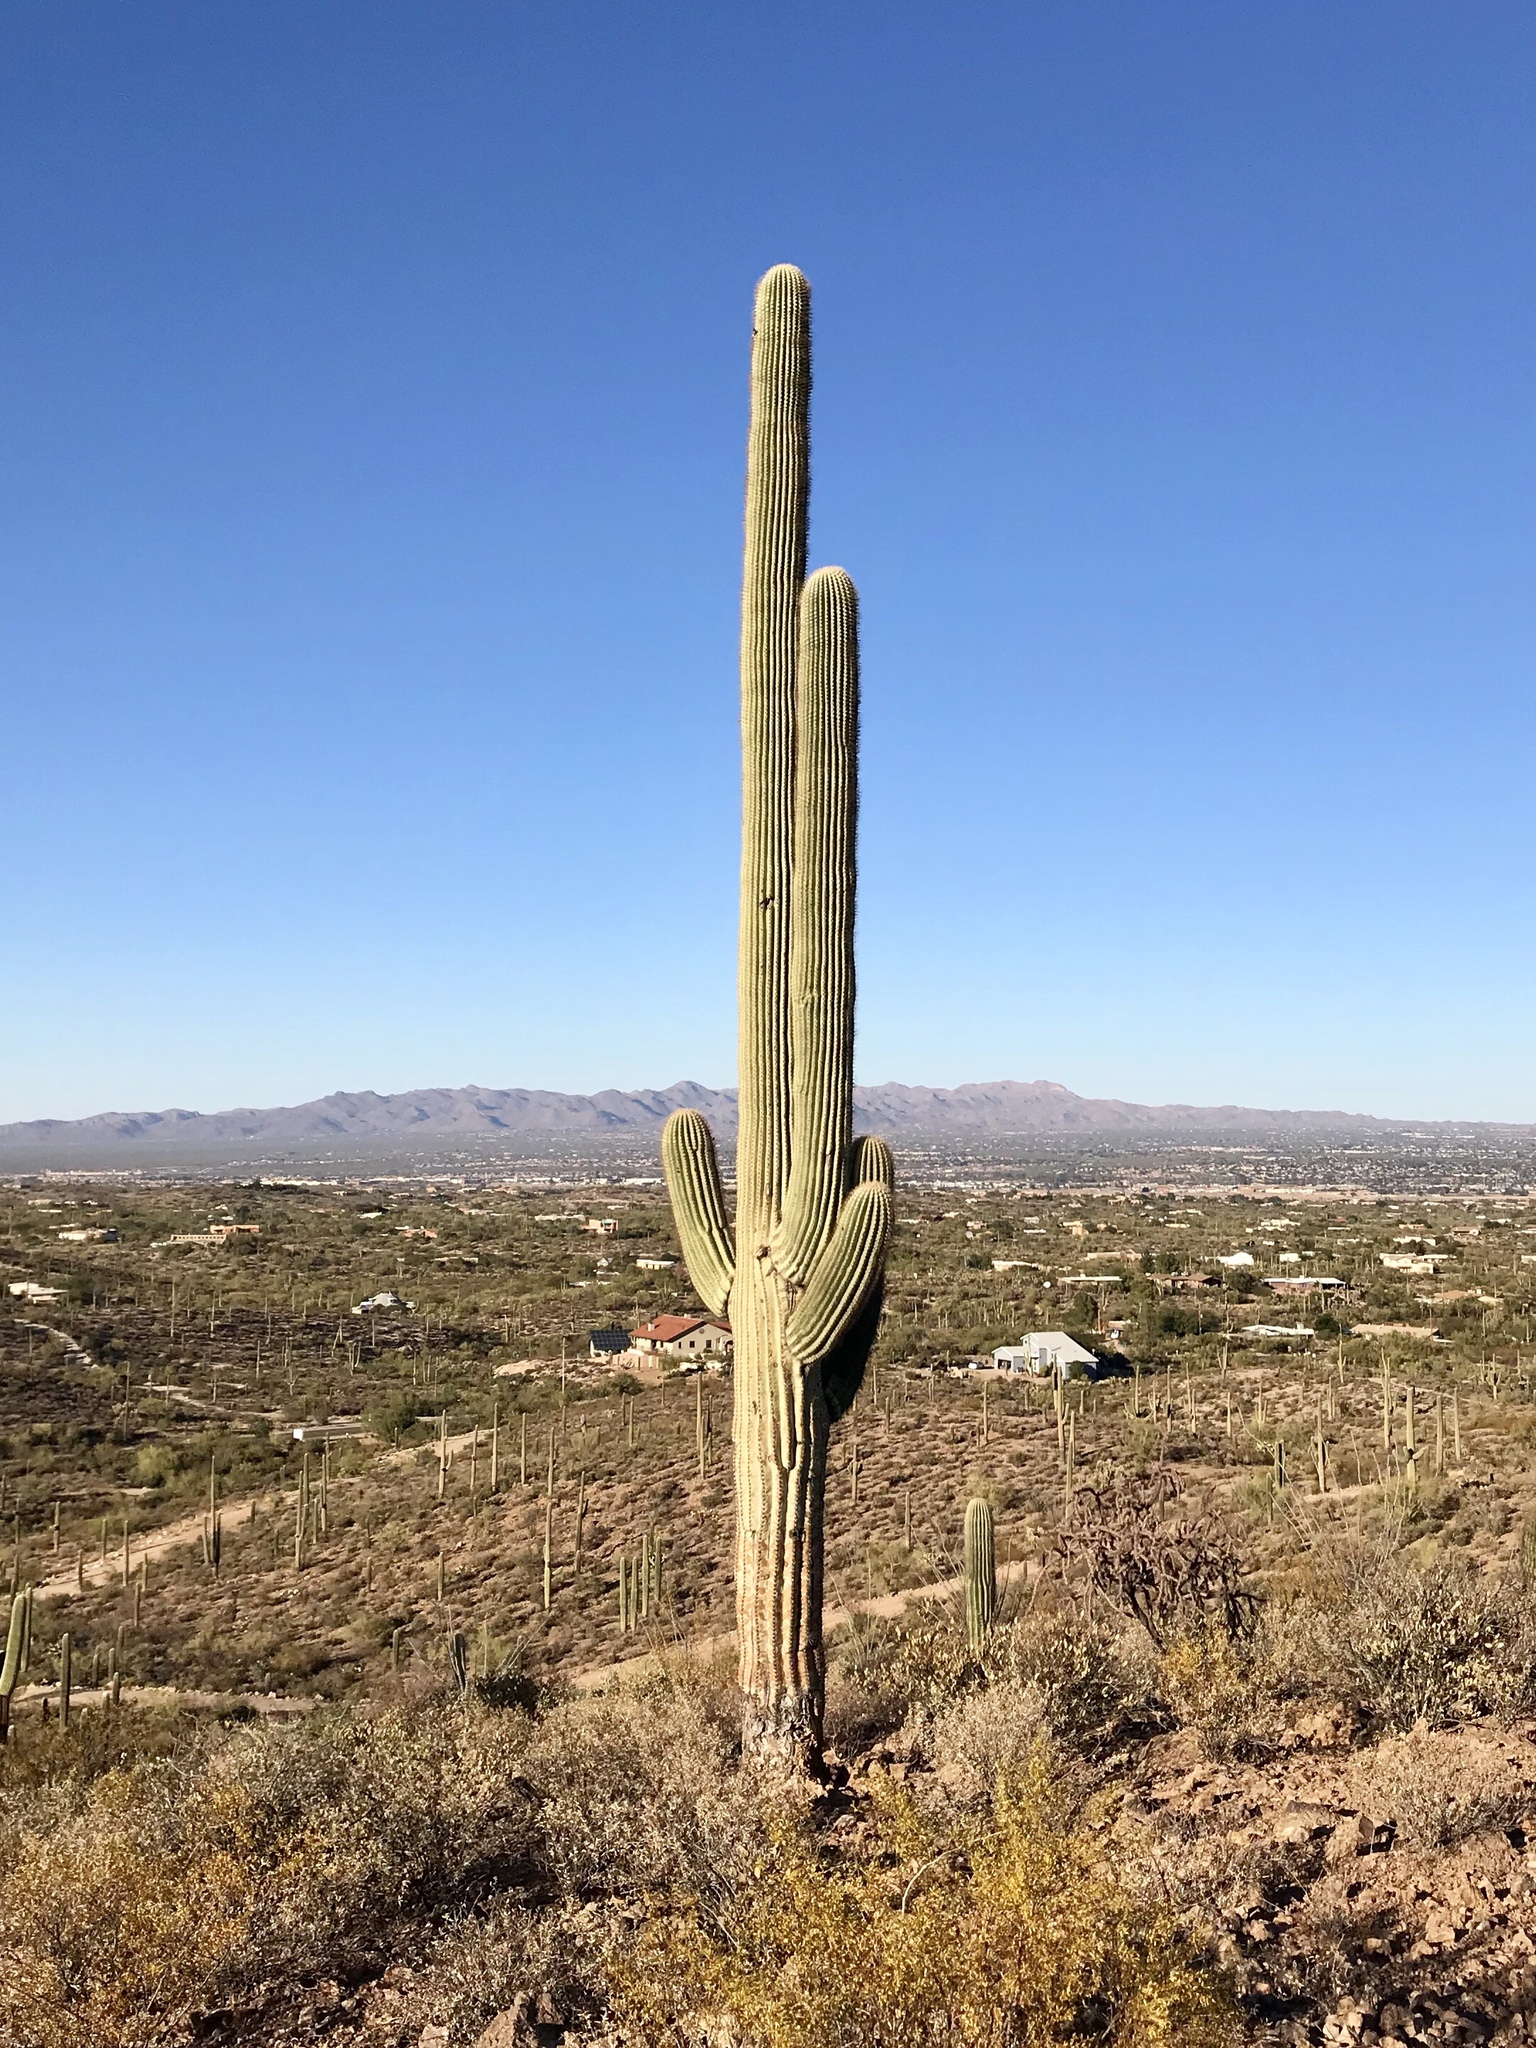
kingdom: Plantae
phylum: Tracheophyta
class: Magnoliopsida
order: Caryophyllales
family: Cactaceae
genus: Carnegiea
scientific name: Carnegiea gigantea
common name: Saguaro
